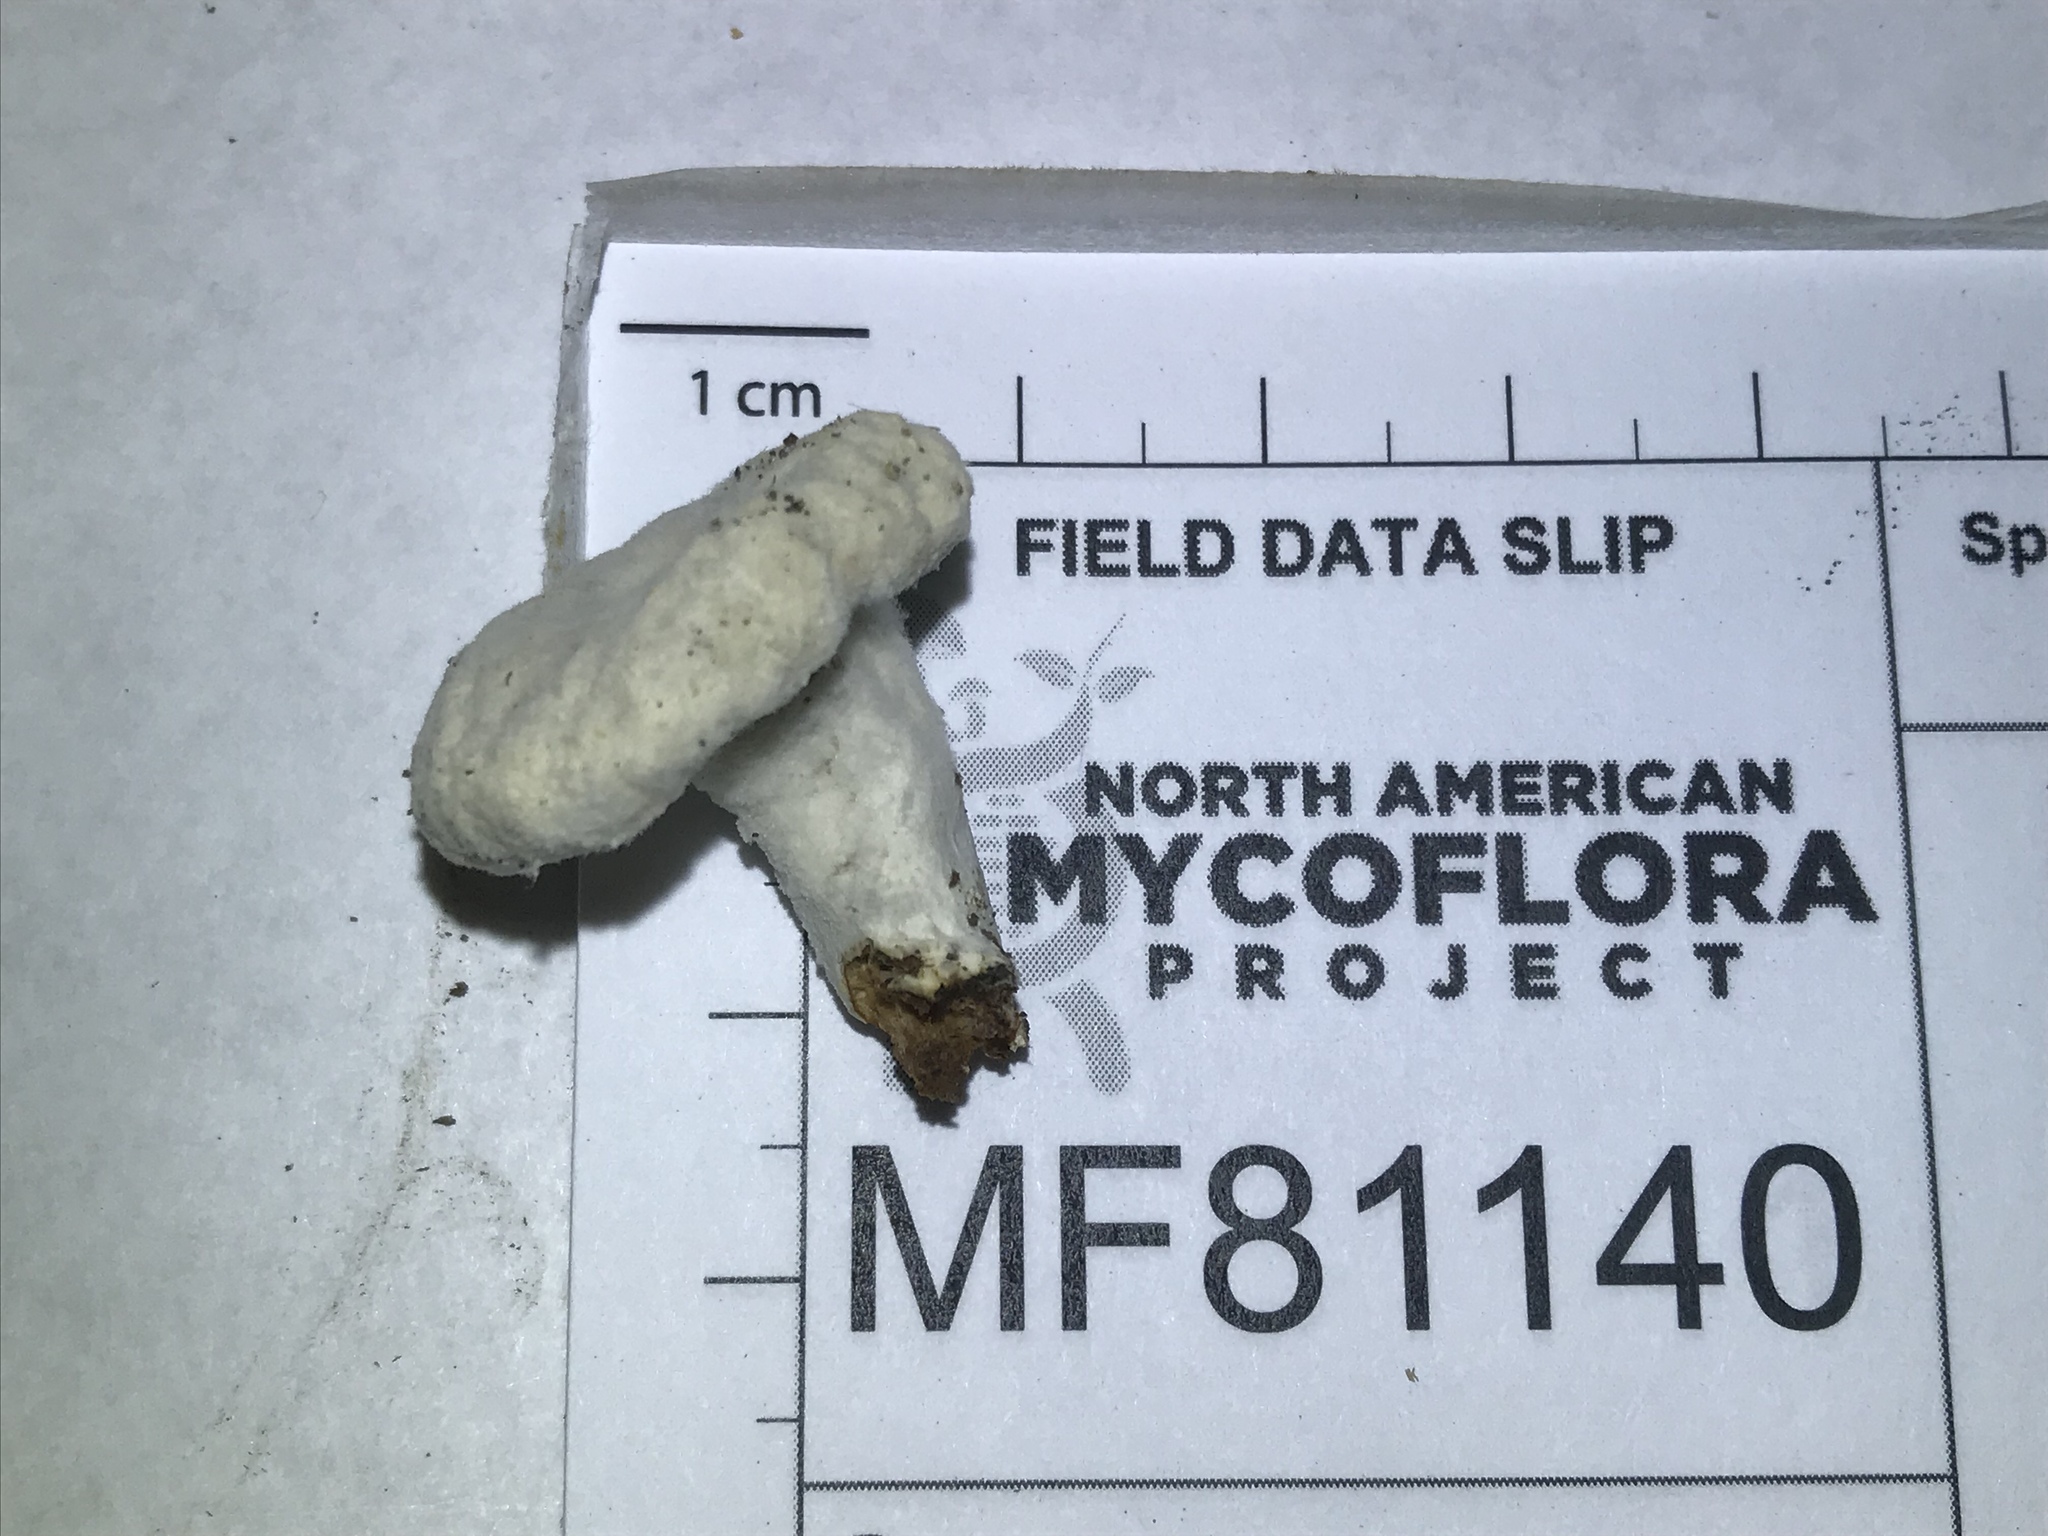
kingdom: Fungi
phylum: Ascomycota
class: Sordariomycetes
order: Hypocreales
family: Hypocreaceae
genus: Hypomyces
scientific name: Hypomyces armeniacus
